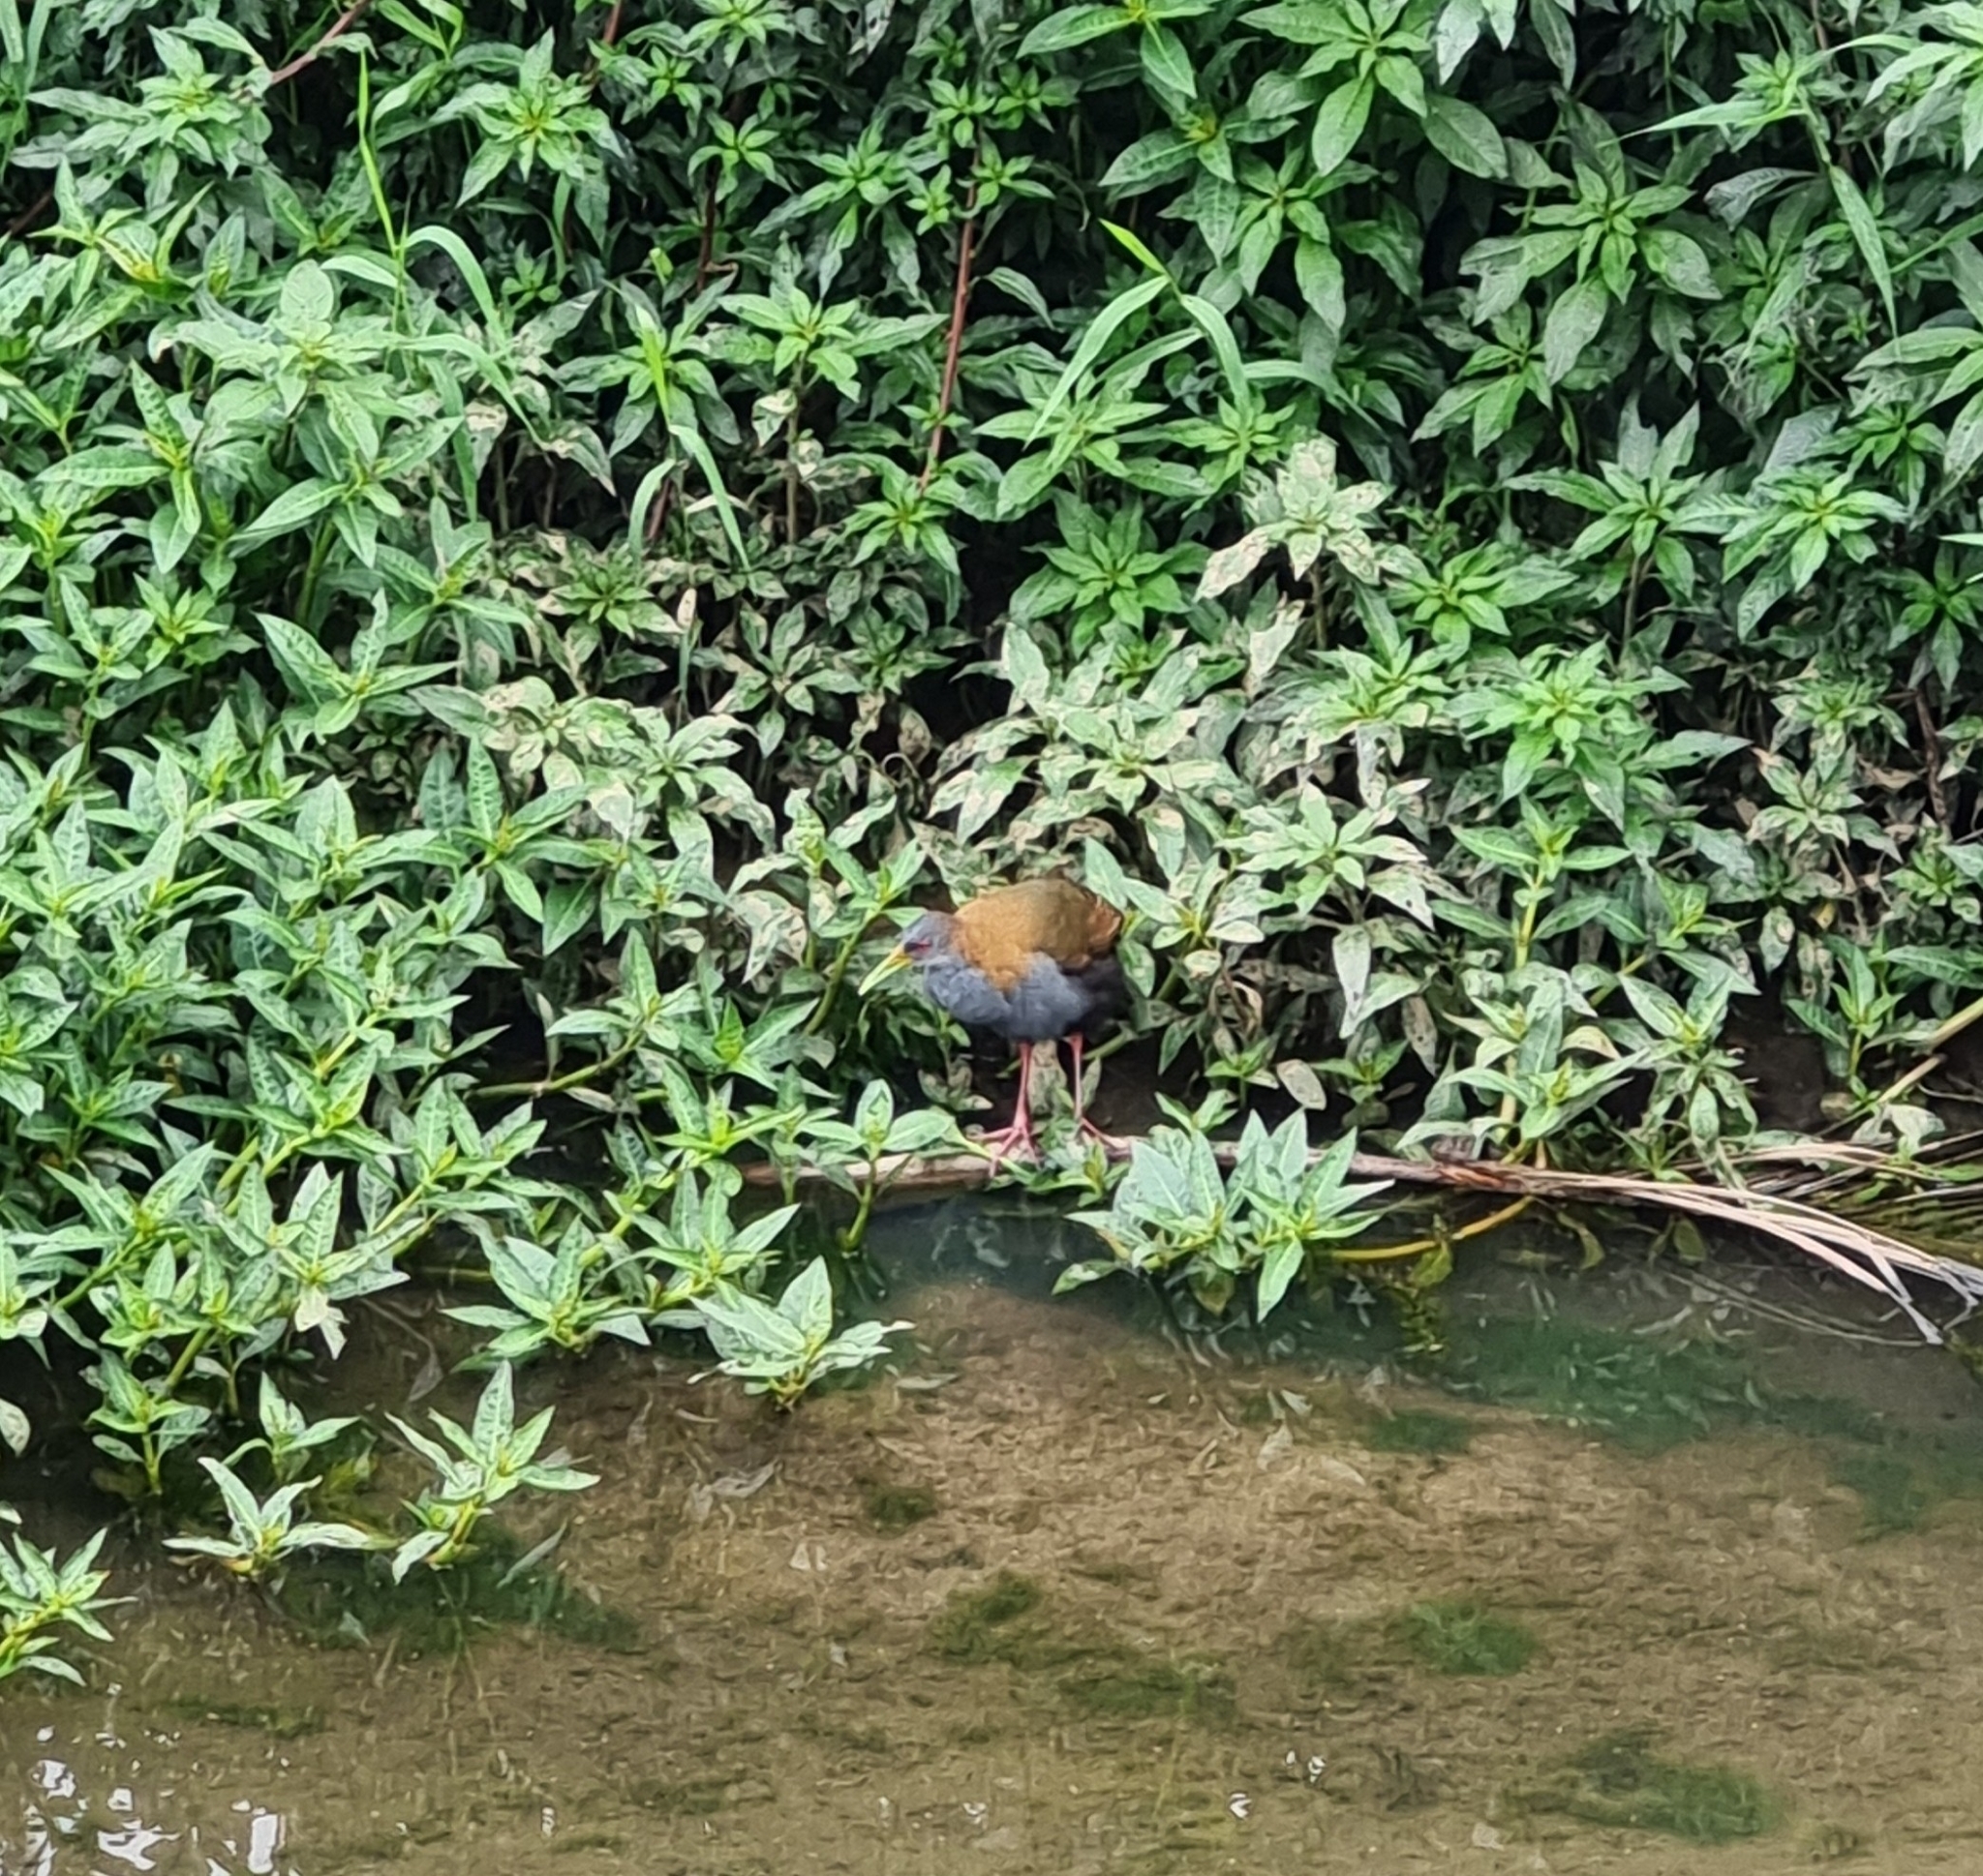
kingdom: Animalia
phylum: Chordata
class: Aves
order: Gruiformes
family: Rallidae
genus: Aramides
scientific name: Aramides saracura
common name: Slaty-breasted wood rail
